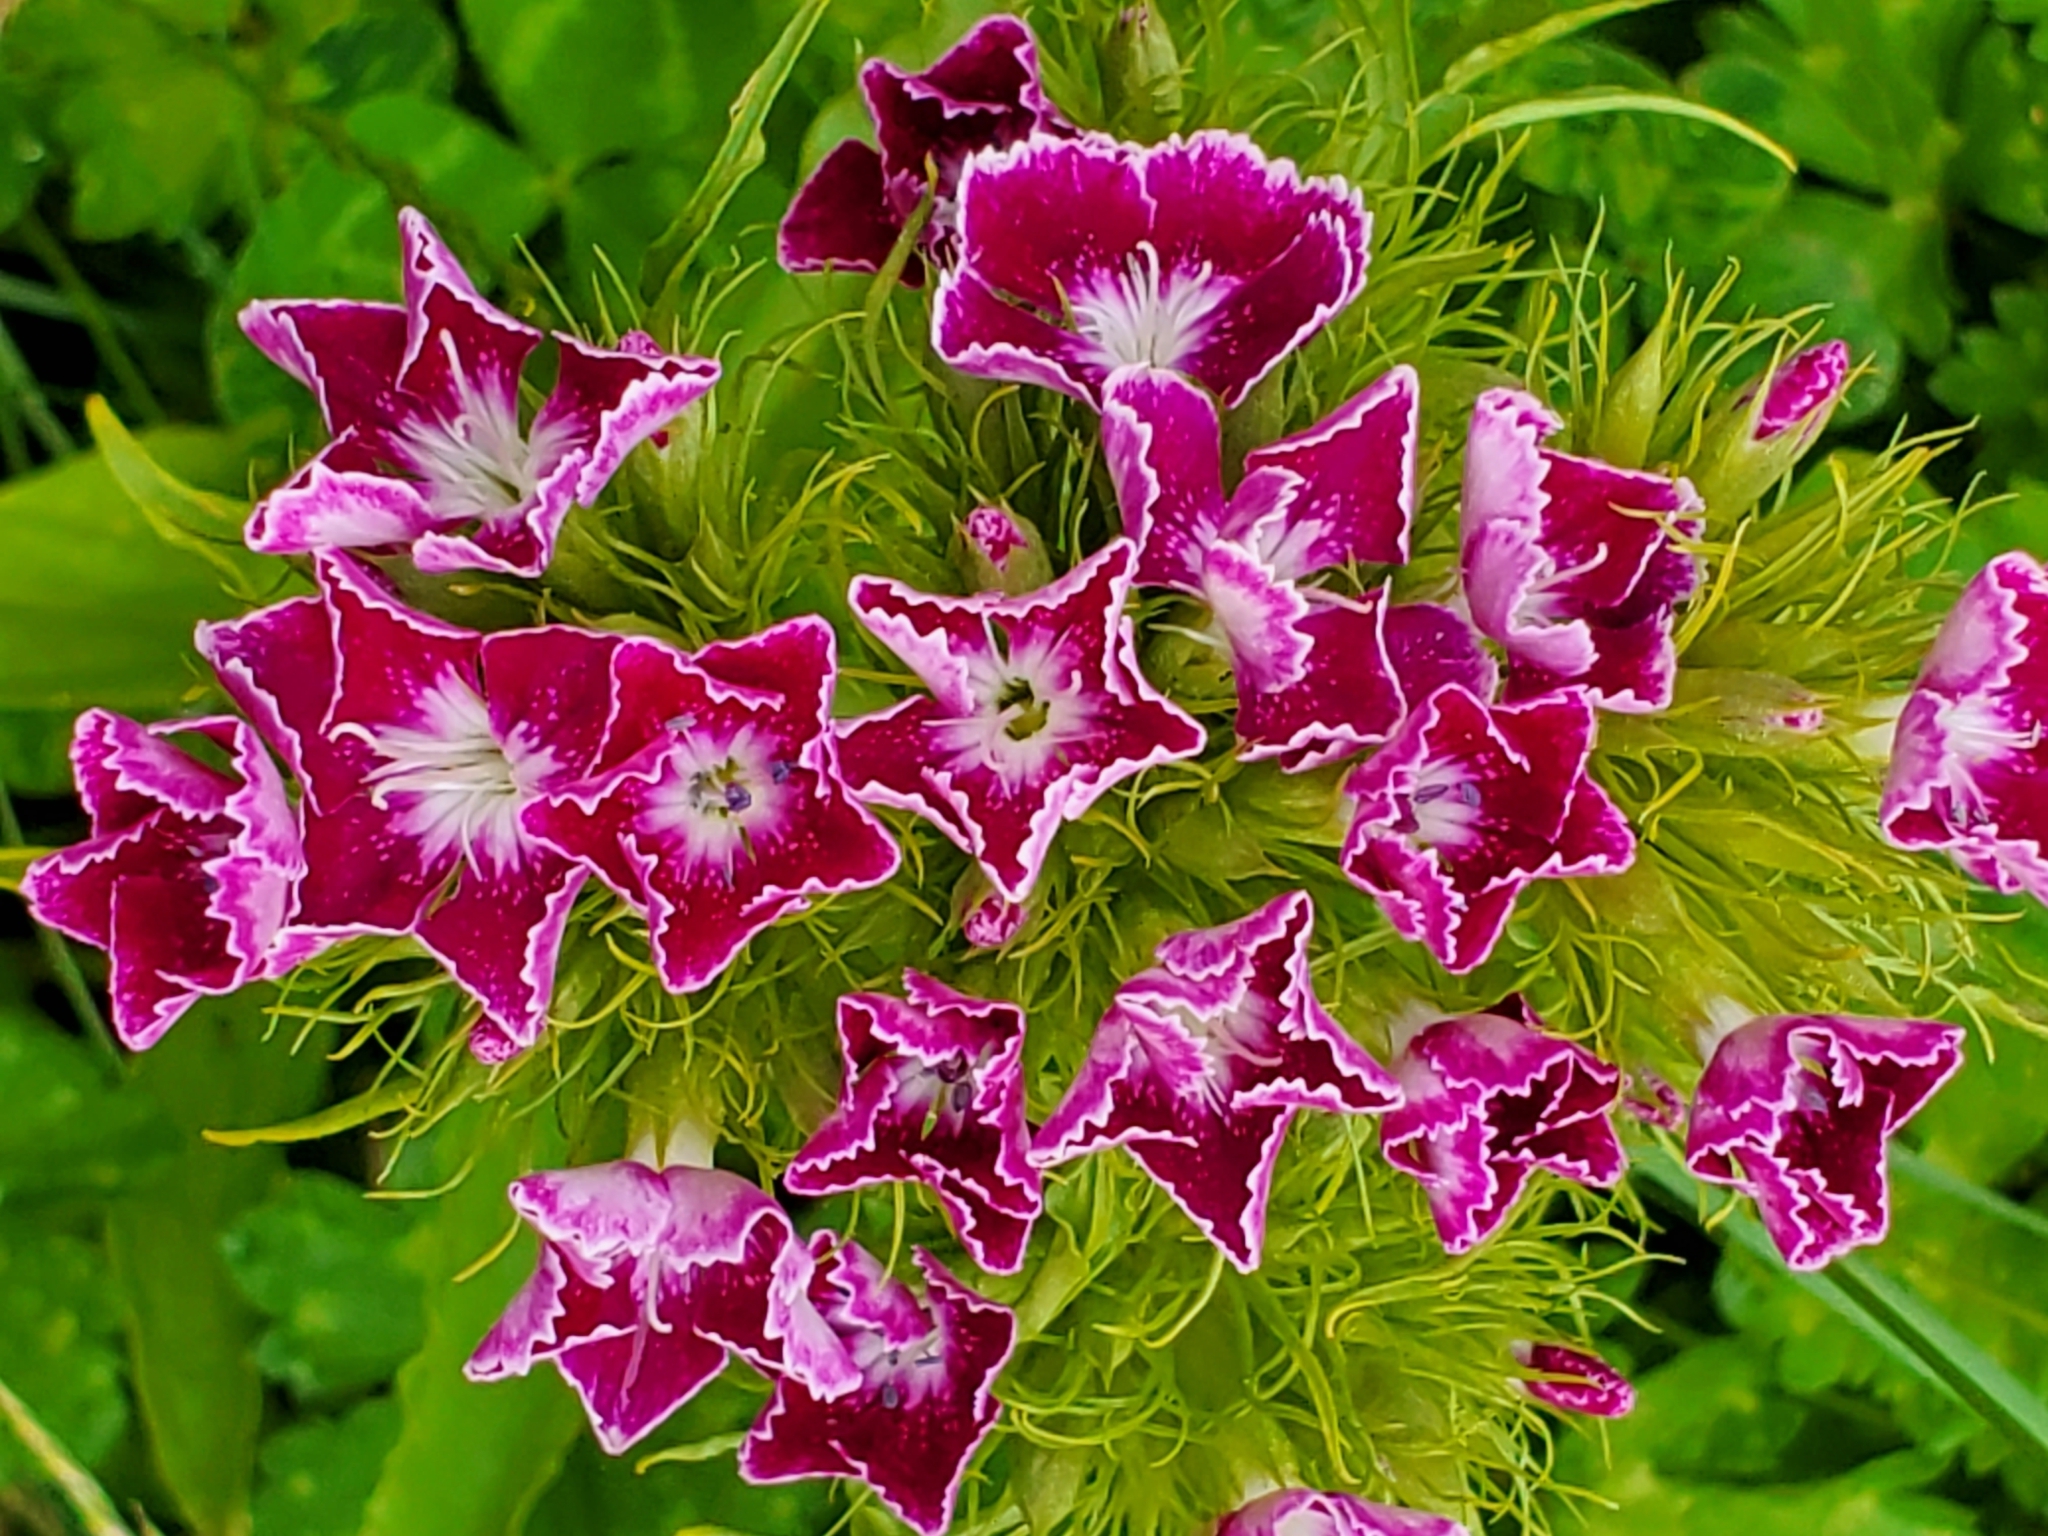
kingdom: Plantae
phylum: Tracheophyta
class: Magnoliopsida
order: Caryophyllales
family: Caryophyllaceae
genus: Dianthus
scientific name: Dianthus barbatus
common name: Sweet-william
